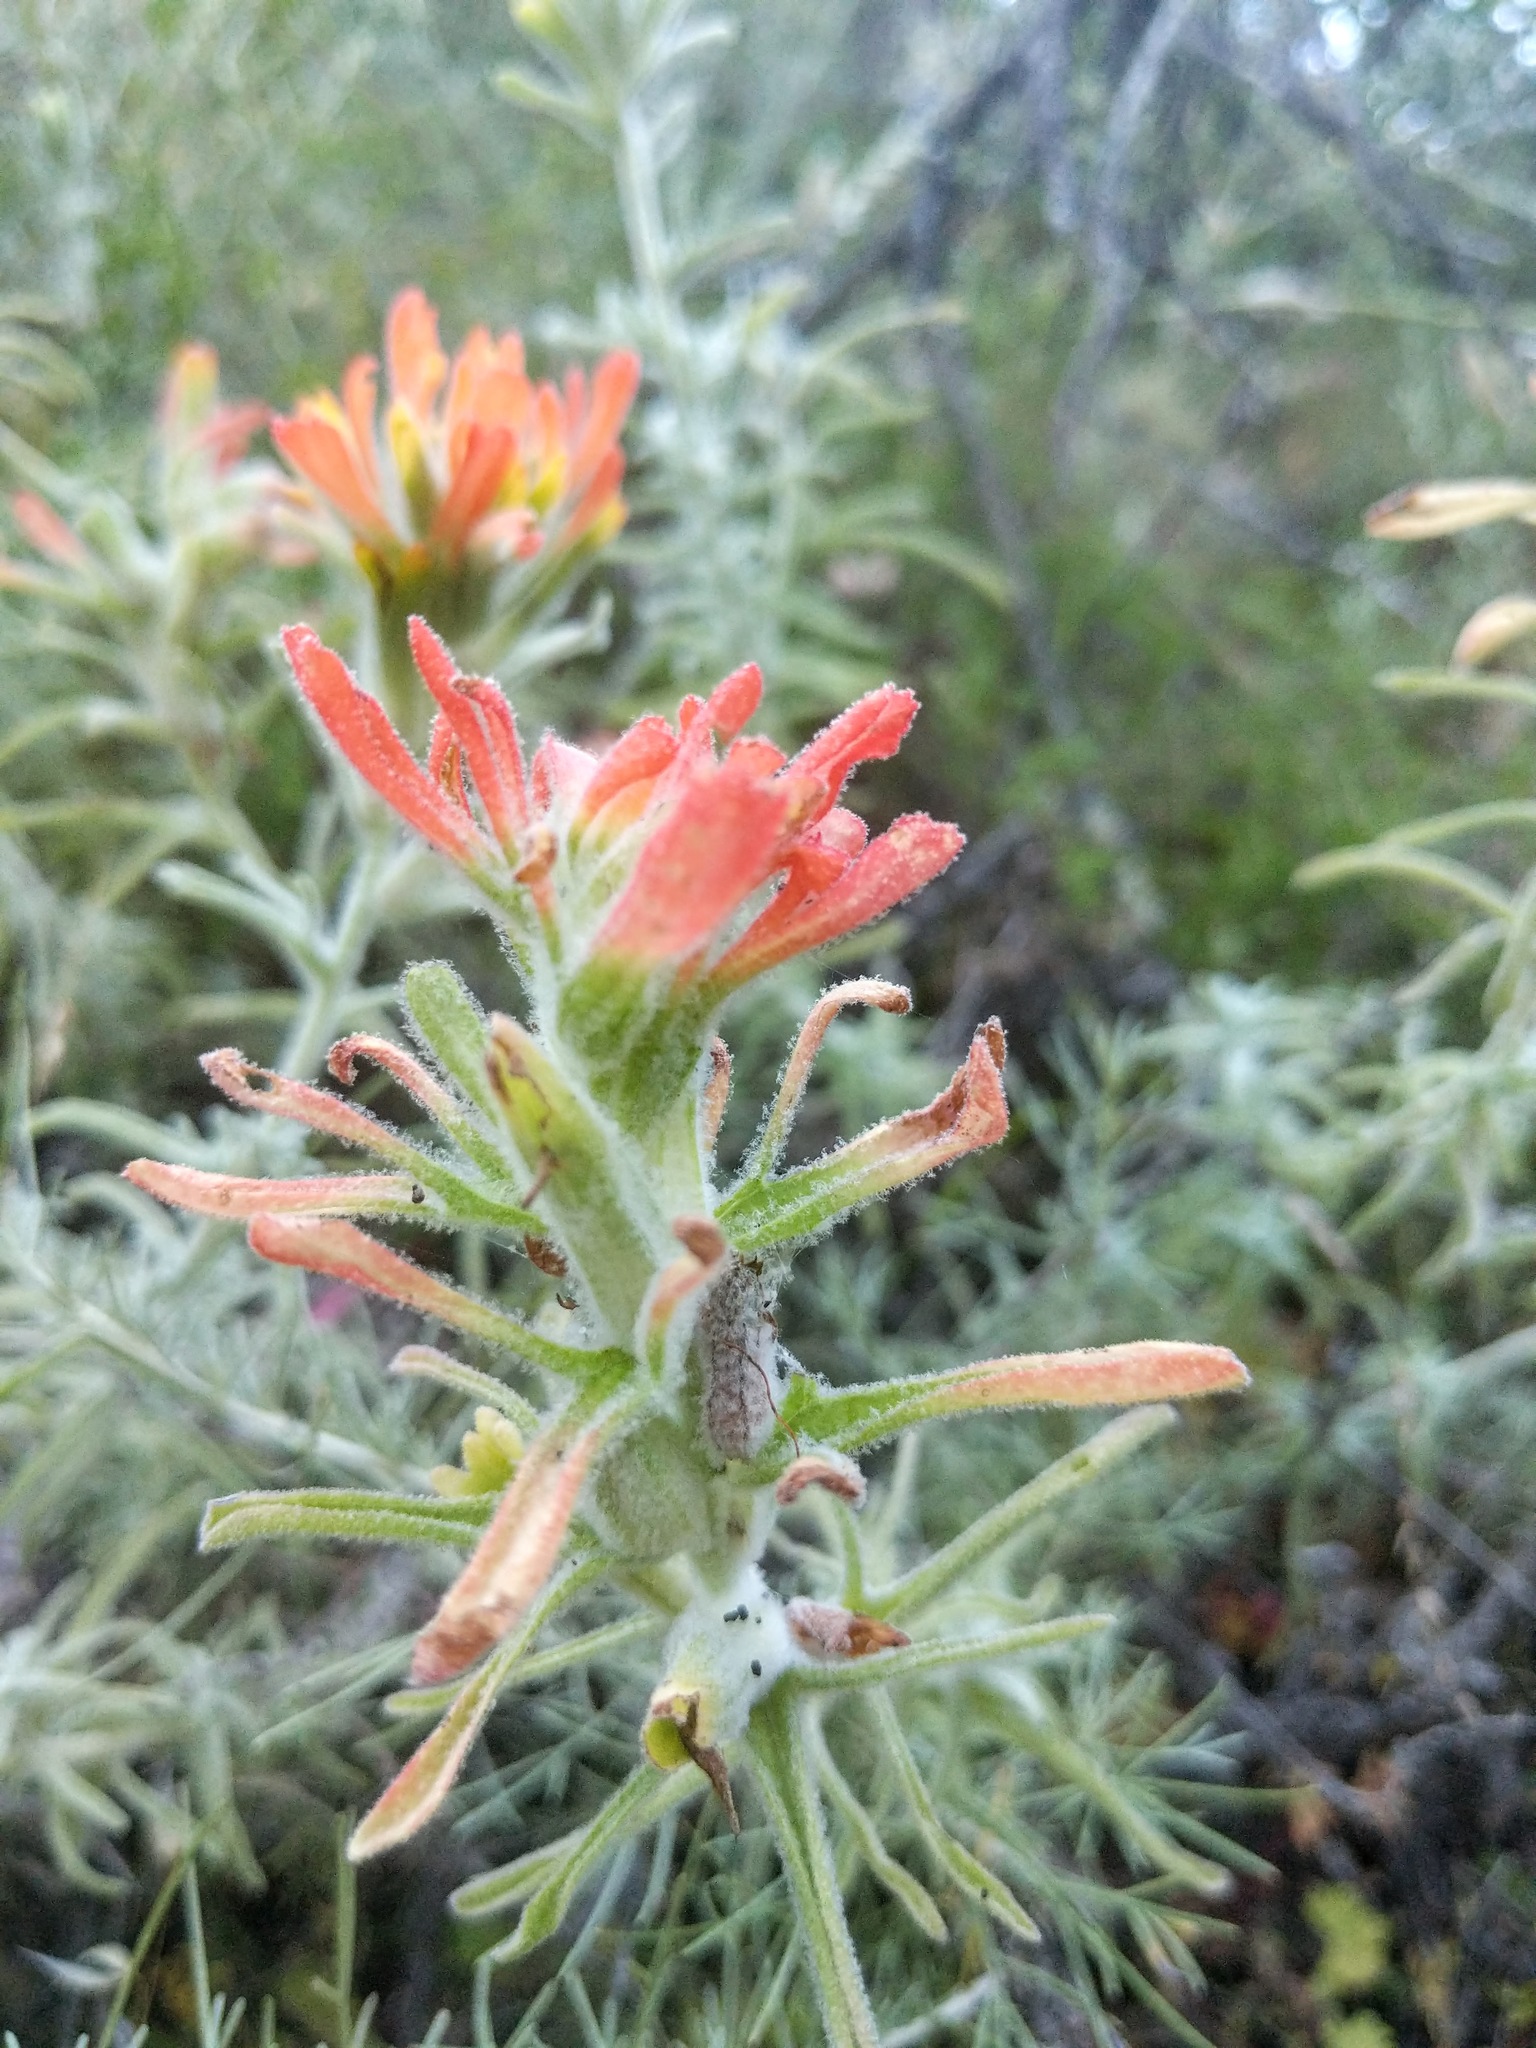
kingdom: Plantae
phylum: Tracheophyta
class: Magnoliopsida
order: Lamiales
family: Orobanchaceae
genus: Castilleja
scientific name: Castilleja foliolosa
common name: Woolly indian paintbrush
